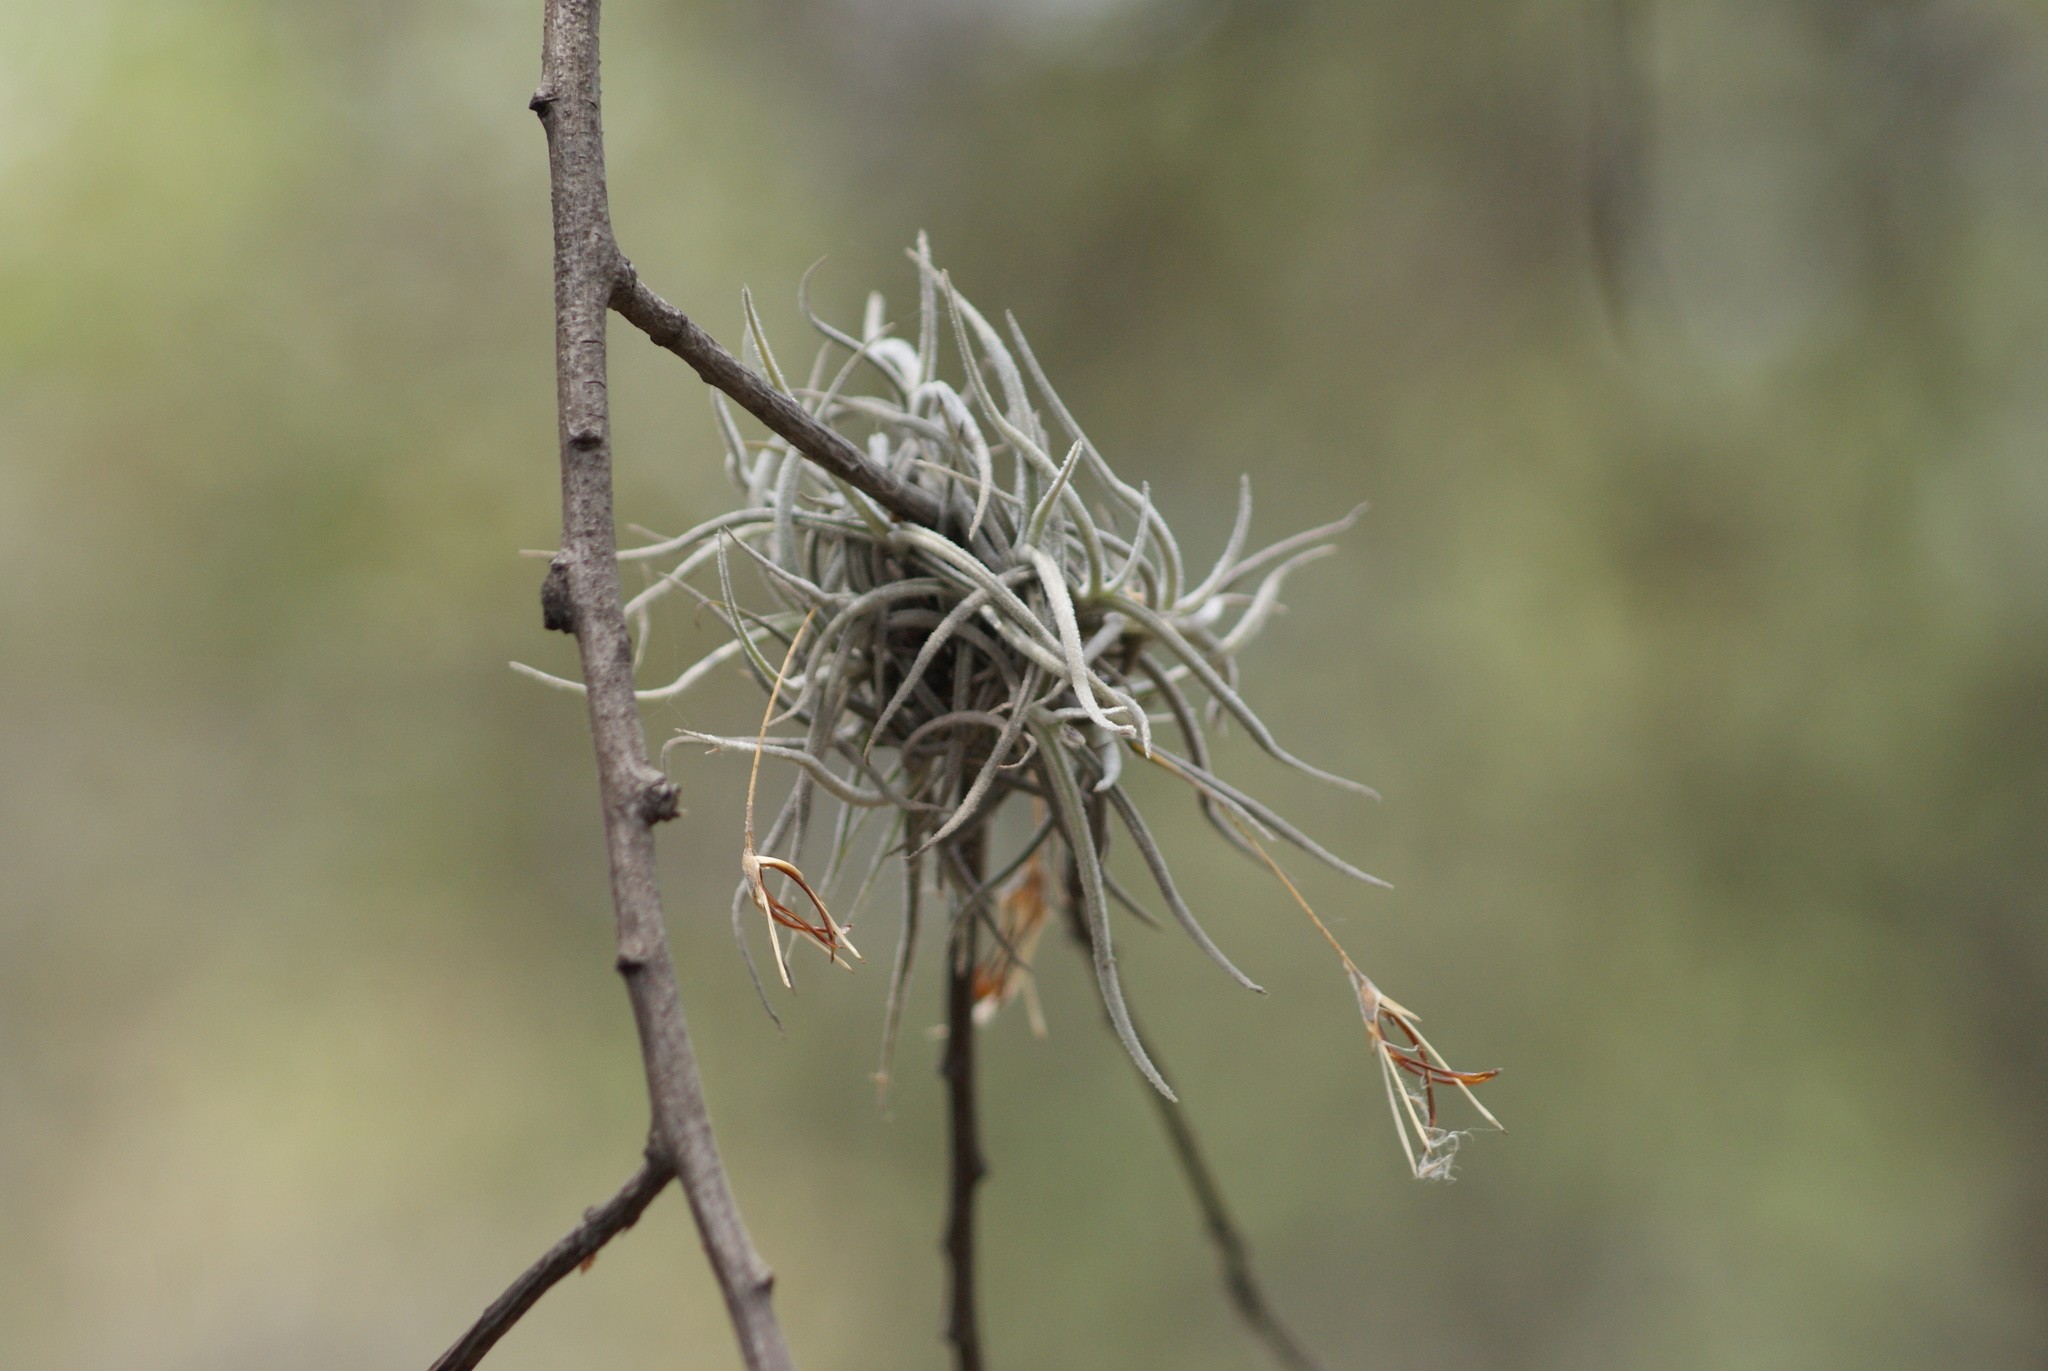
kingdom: Plantae
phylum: Tracheophyta
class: Liliopsida
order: Poales
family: Bromeliaceae
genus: Tillandsia
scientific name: Tillandsia recurvata
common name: Small ballmoss
